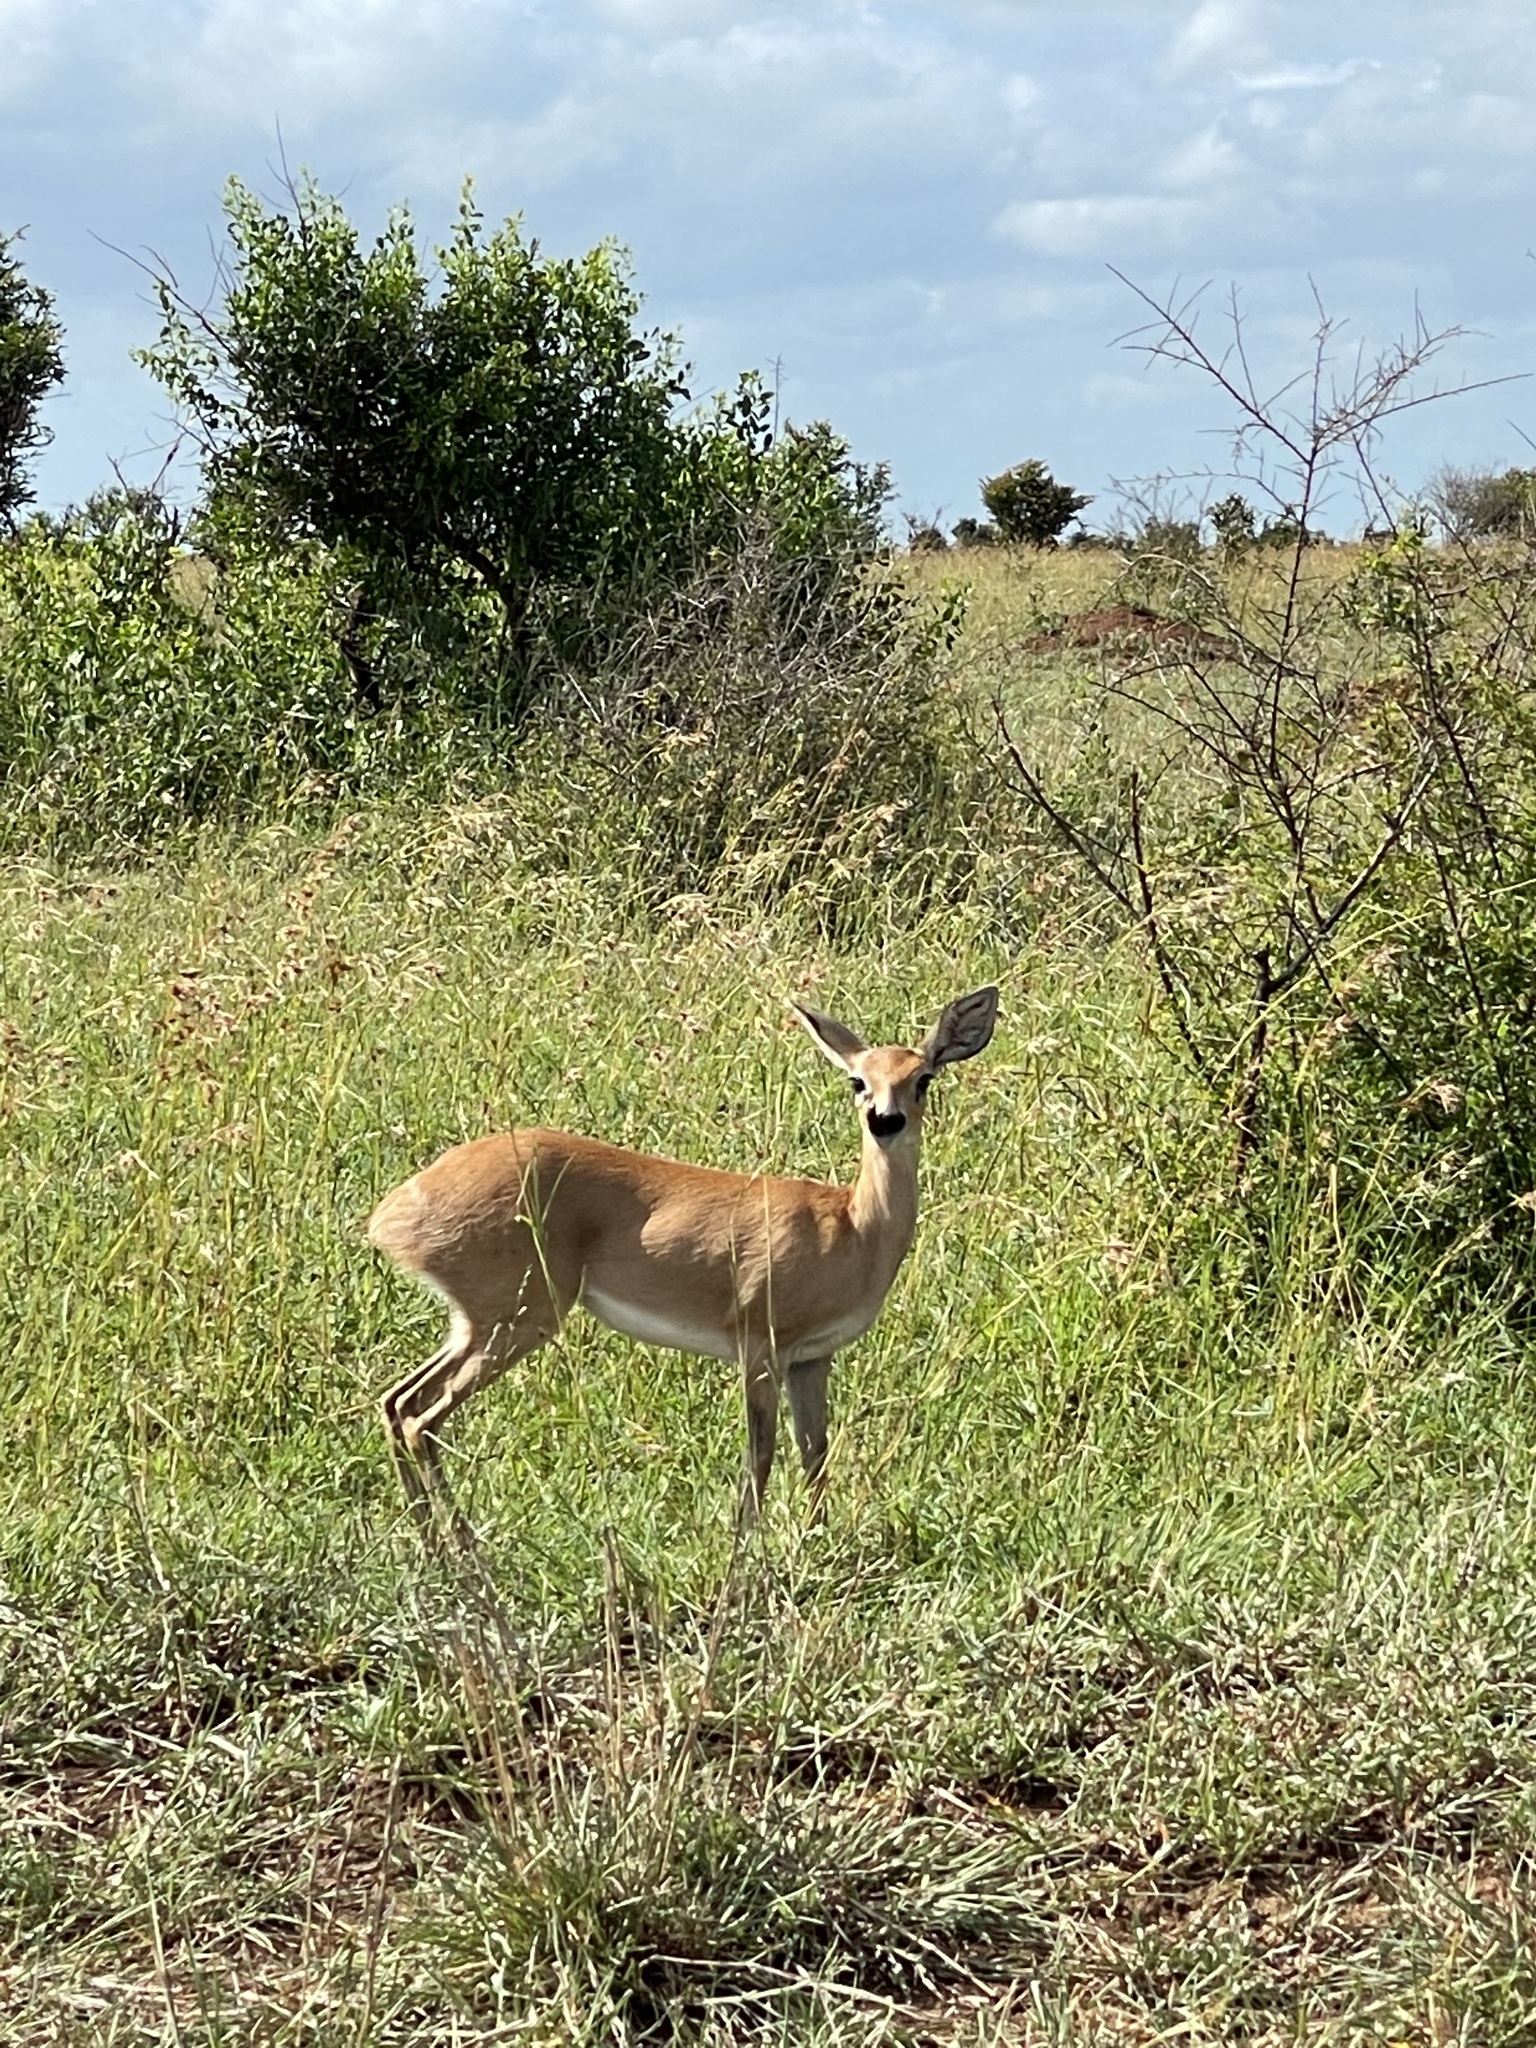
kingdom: Animalia
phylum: Chordata
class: Mammalia
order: Artiodactyla
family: Bovidae
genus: Raphicerus
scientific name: Raphicerus campestris
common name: Steenbok
